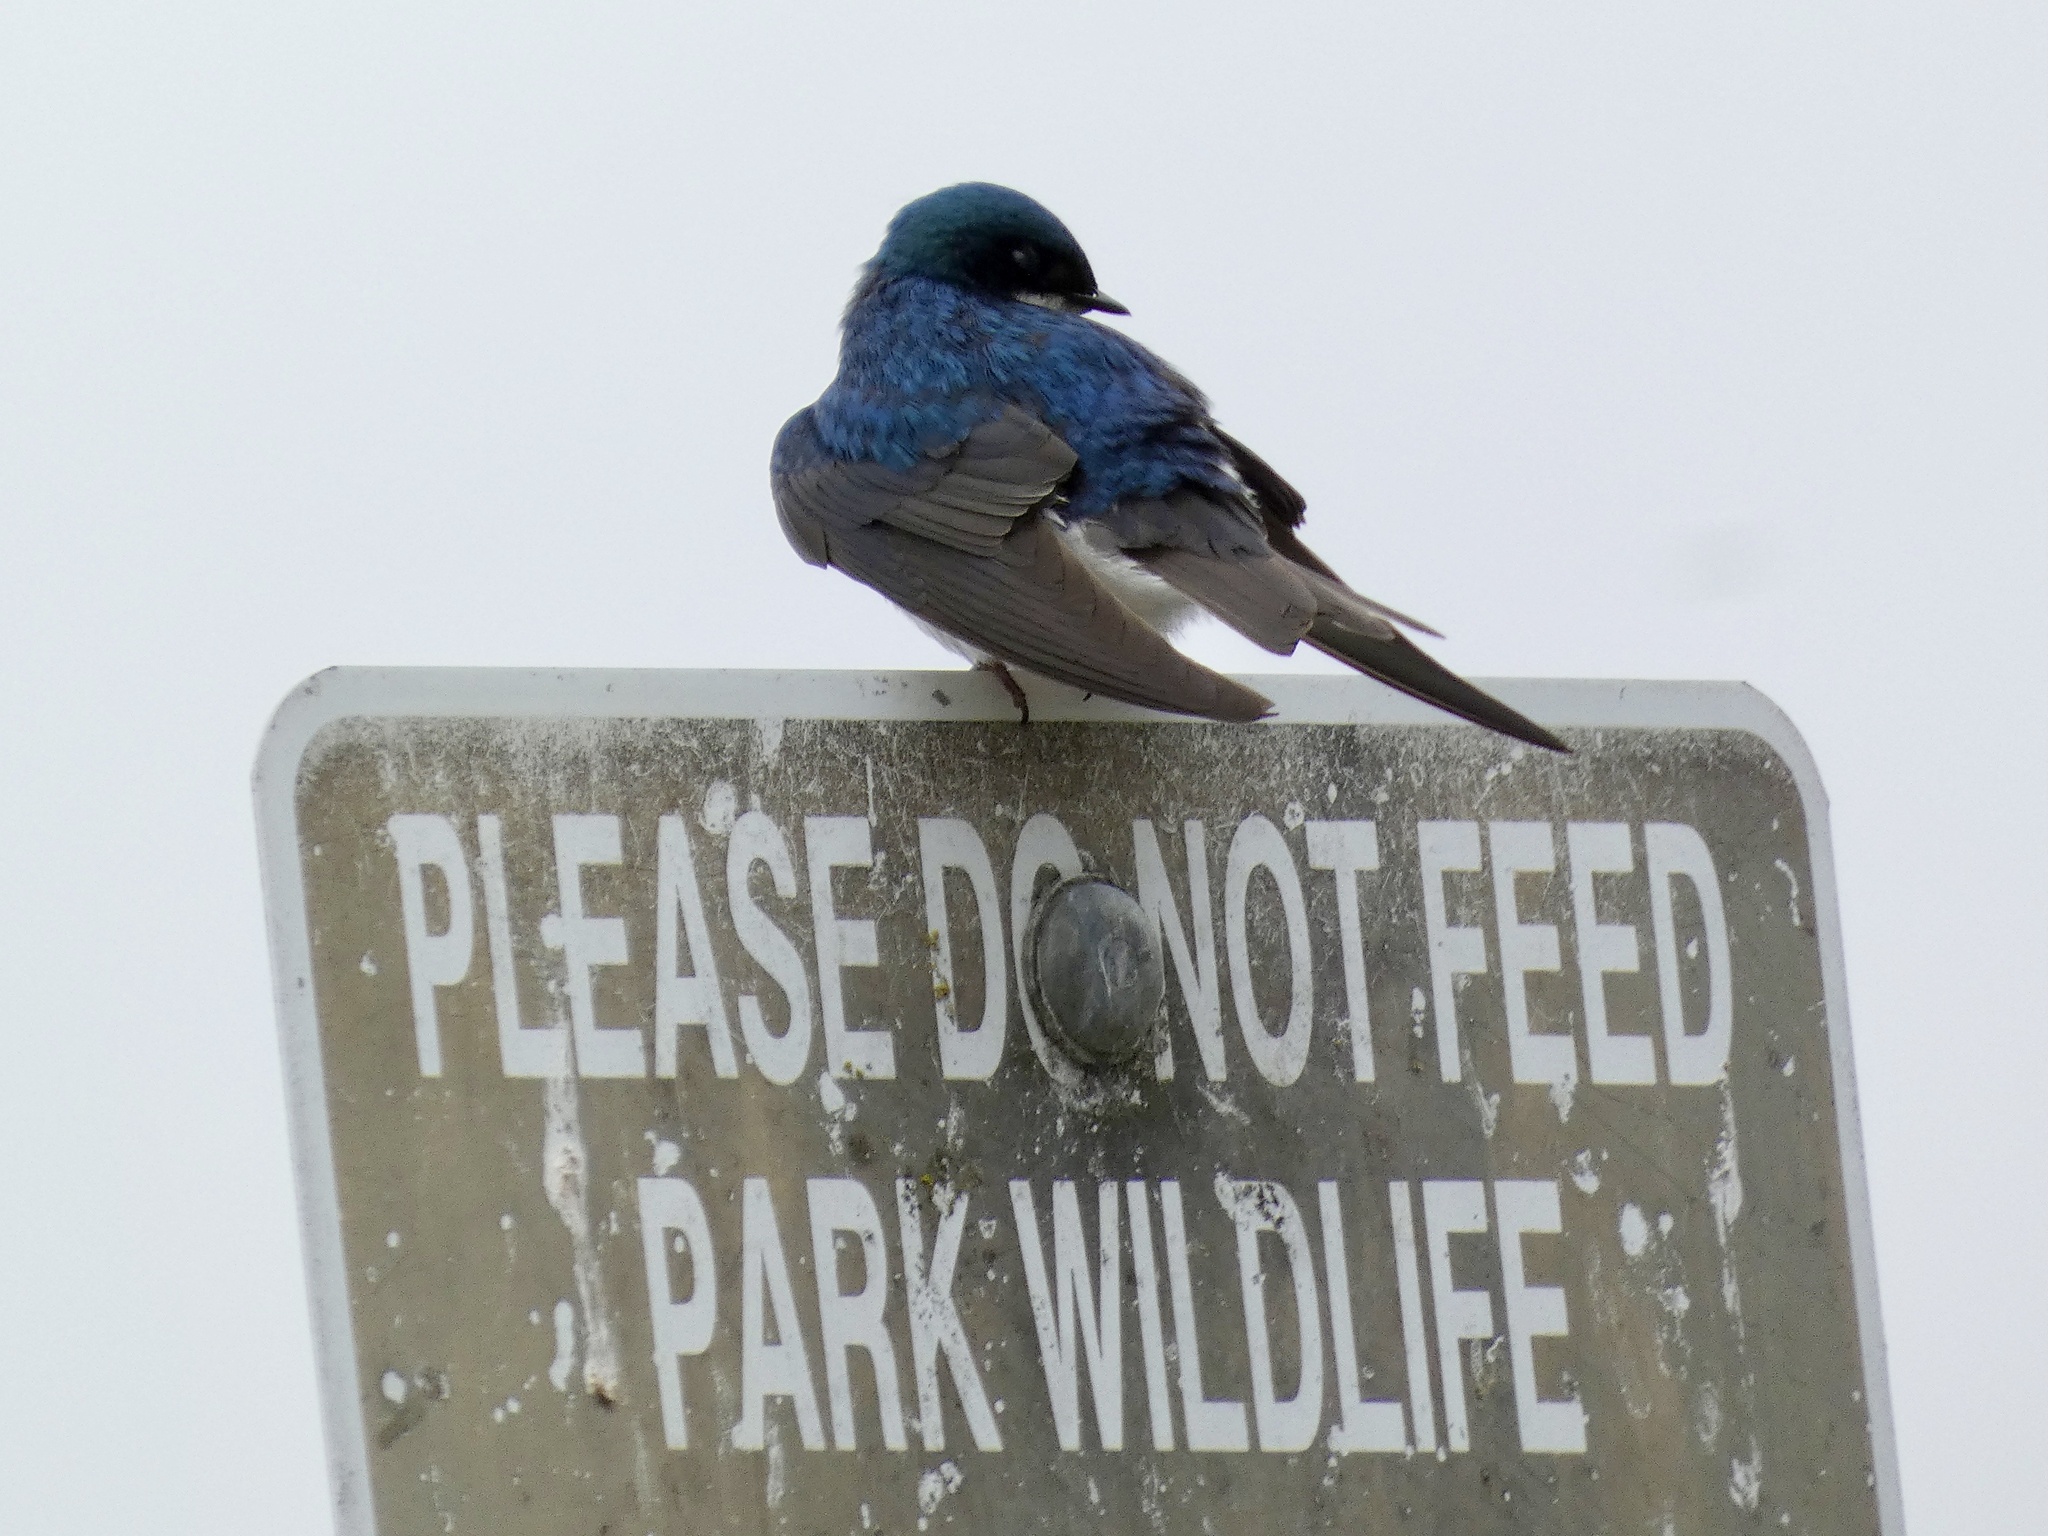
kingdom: Animalia
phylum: Chordata
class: Aves
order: Passeriformes
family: Hirundinidae
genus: Tachycineta
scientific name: Tachycineta bicolor
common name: Tree swallow
